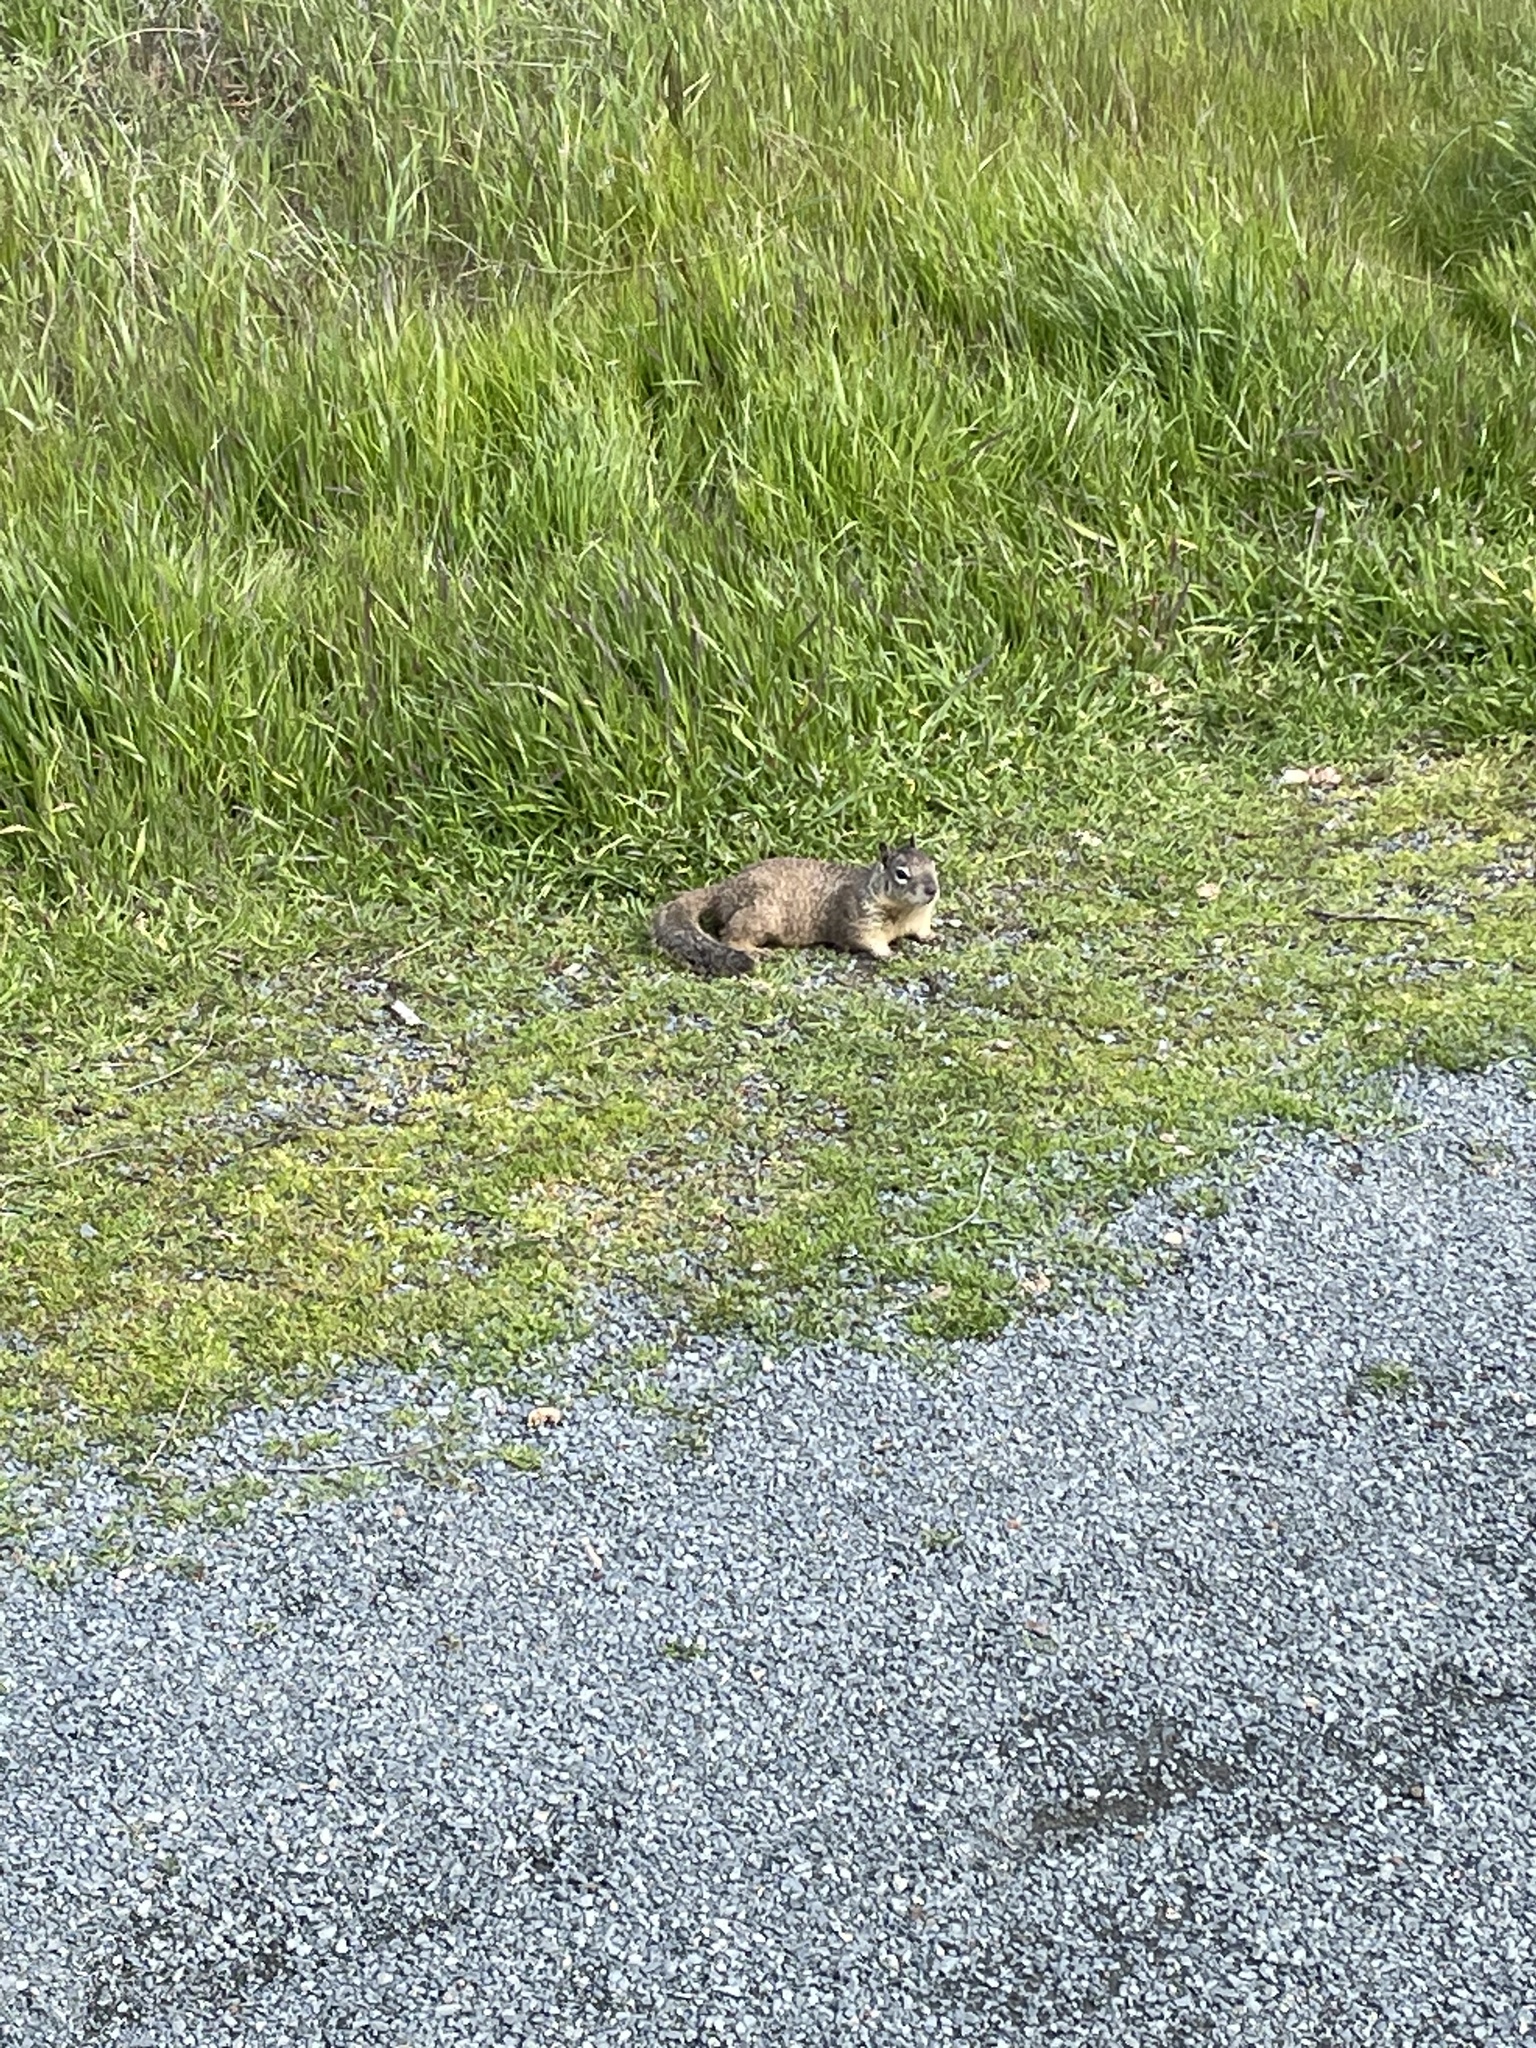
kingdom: Animalia
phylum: Chordata
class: Mammalia
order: Rodentia
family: Sciuridae
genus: Otospermophilus
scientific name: Otospermophilus beecheyi
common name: California ground squirrel
